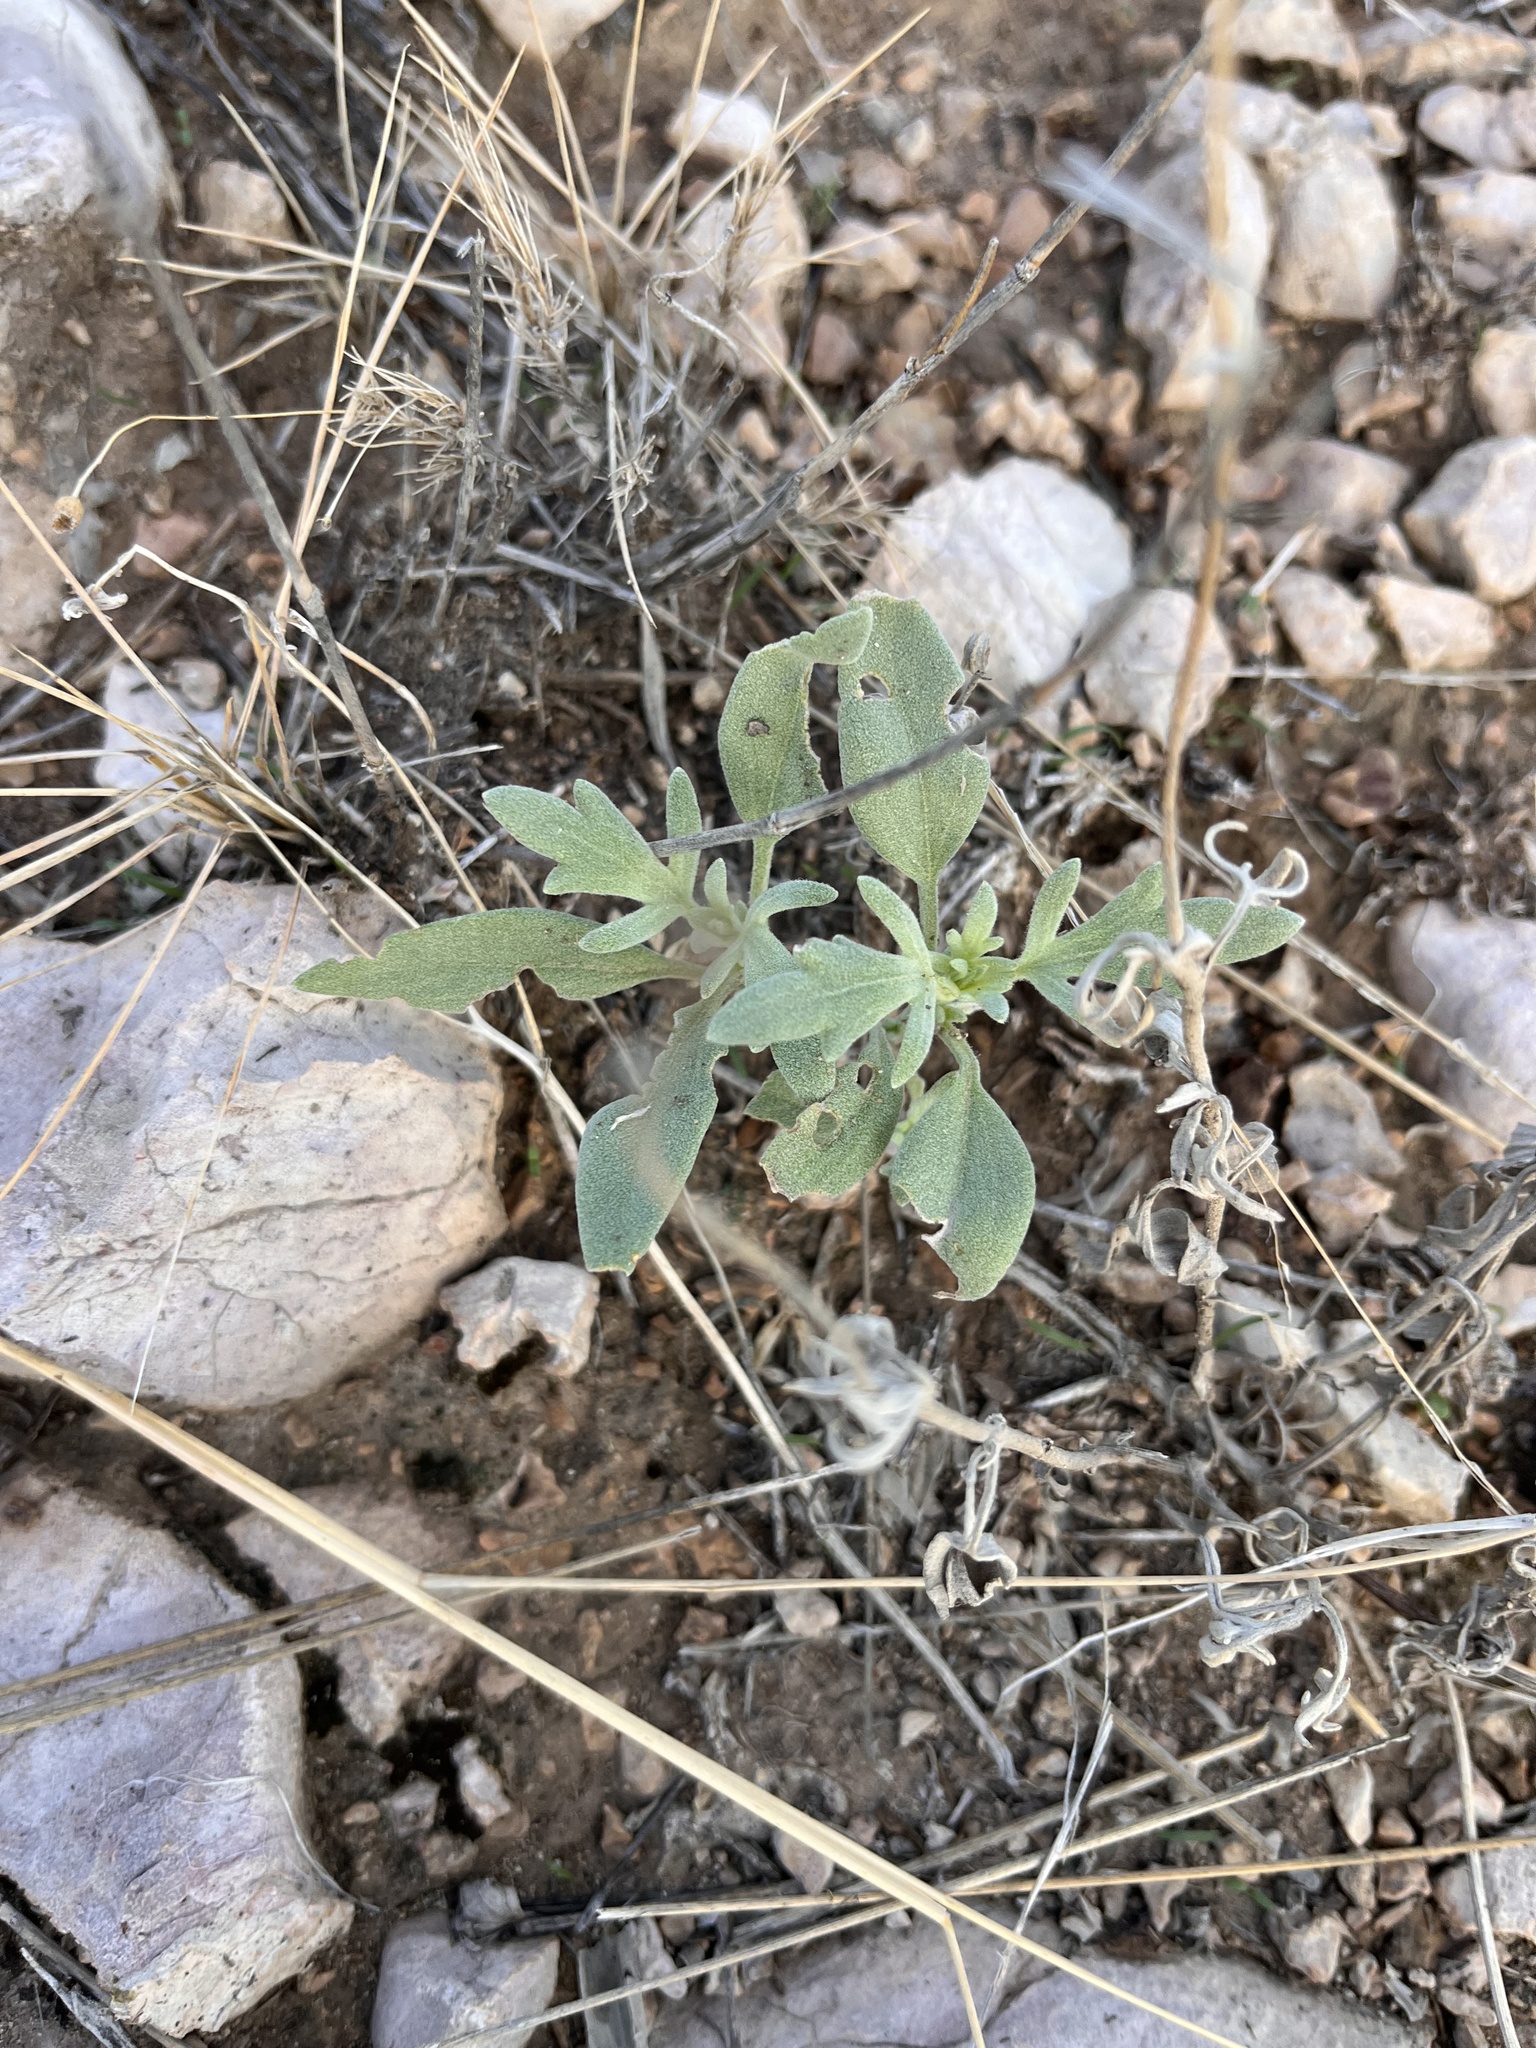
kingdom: Plantae
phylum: Tracheophyta
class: Magnoliopsida
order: Solanales
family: Solanaceae
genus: Chamaesaracha
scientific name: Chamaesaracha sordida
